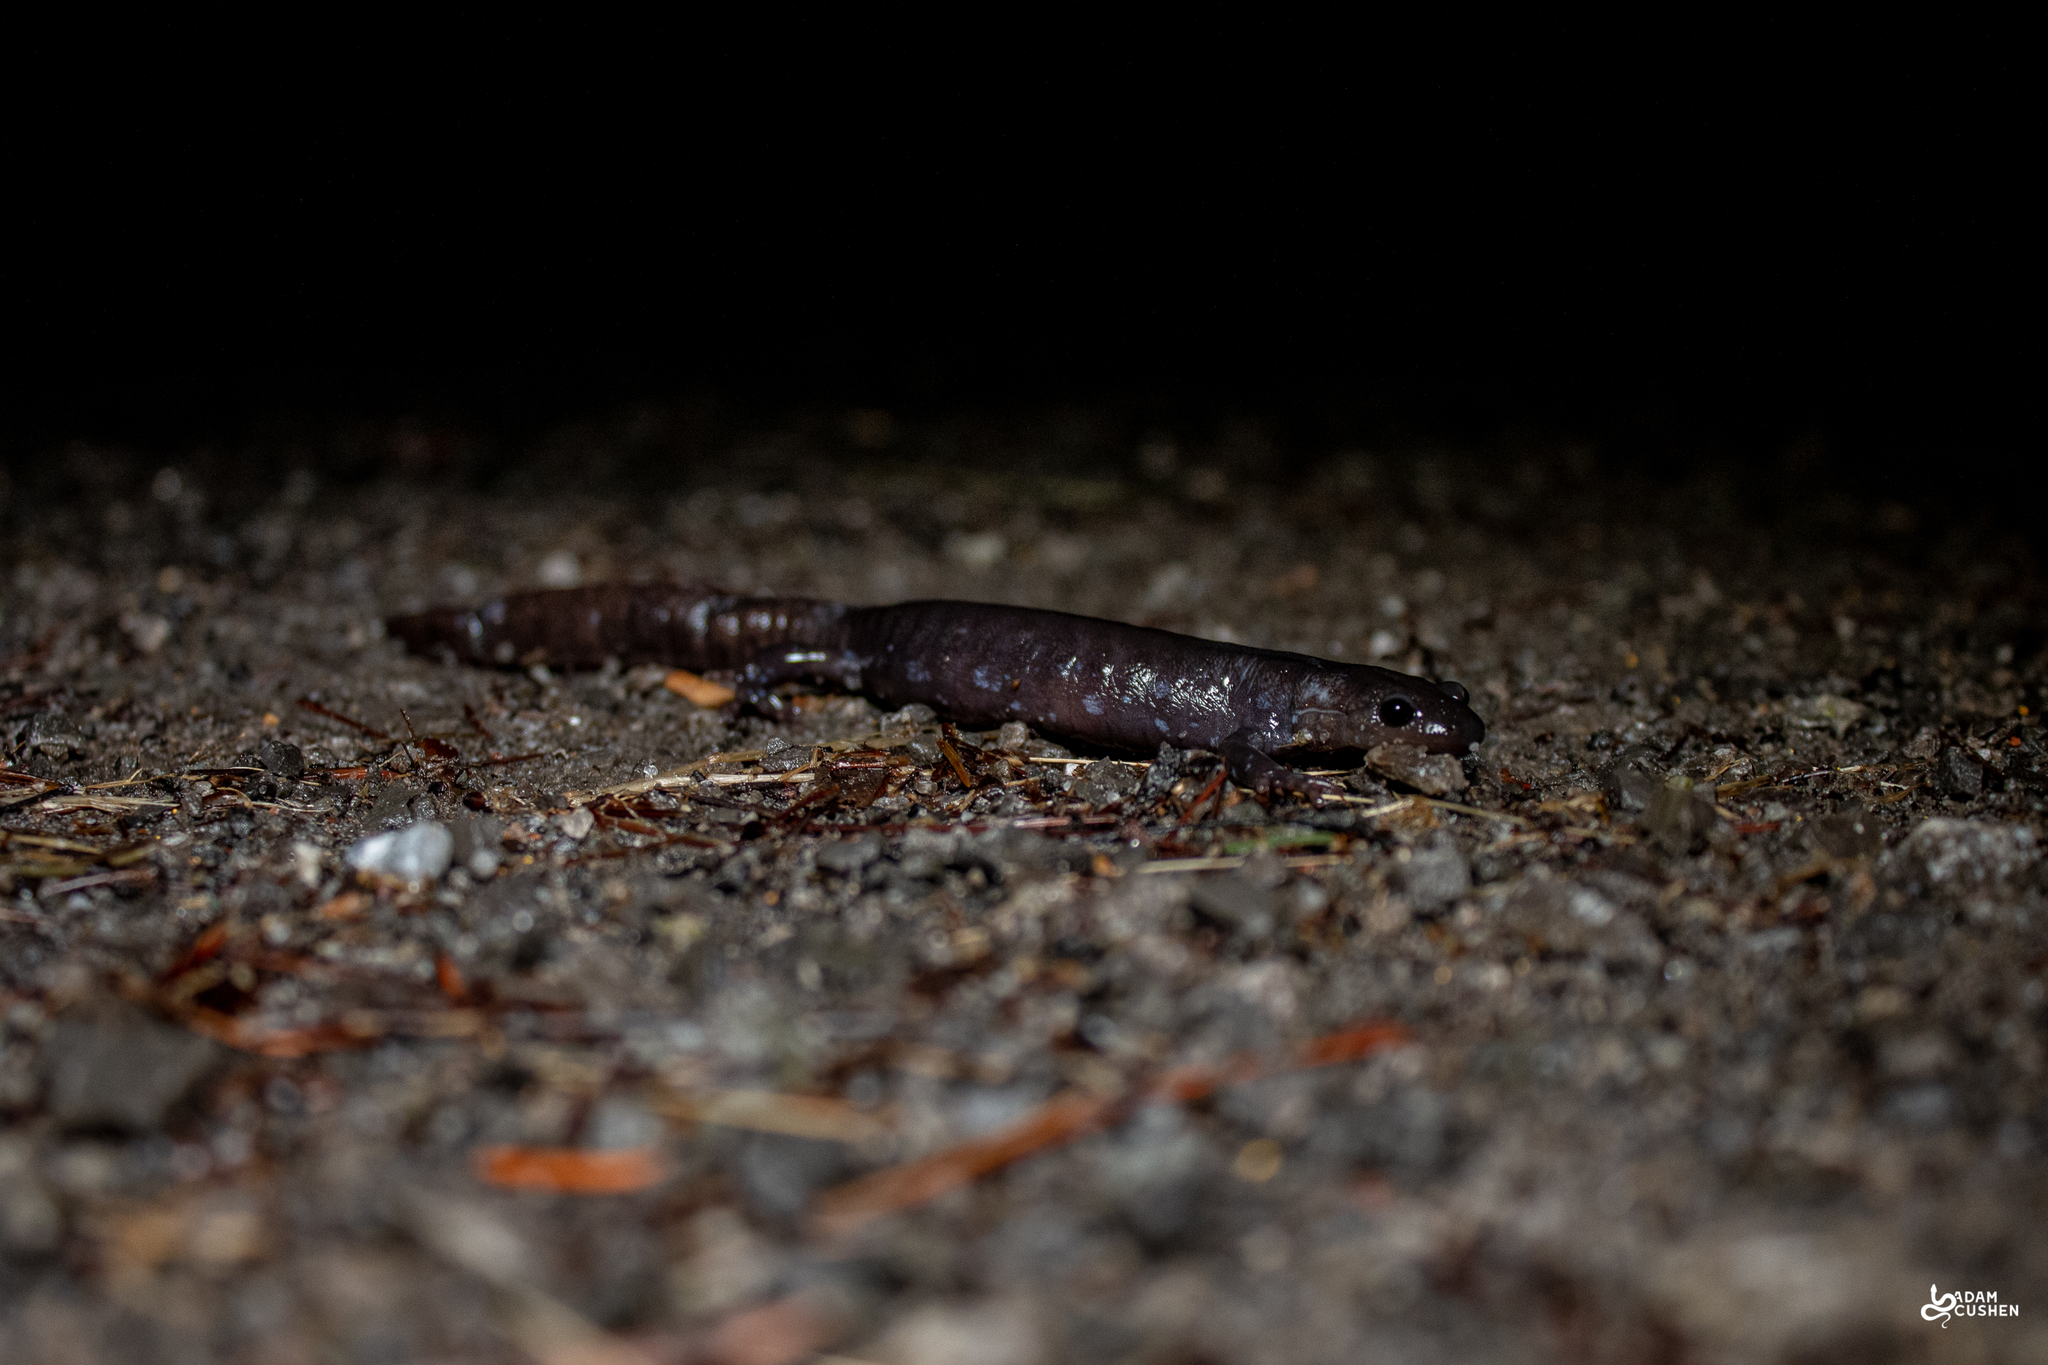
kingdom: Animalia
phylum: Chordata
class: Amphibia
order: Caudata
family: Ambystomatidae
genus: Ambystoma
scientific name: Ambystoma laterale
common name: Blue-spotted salamander
